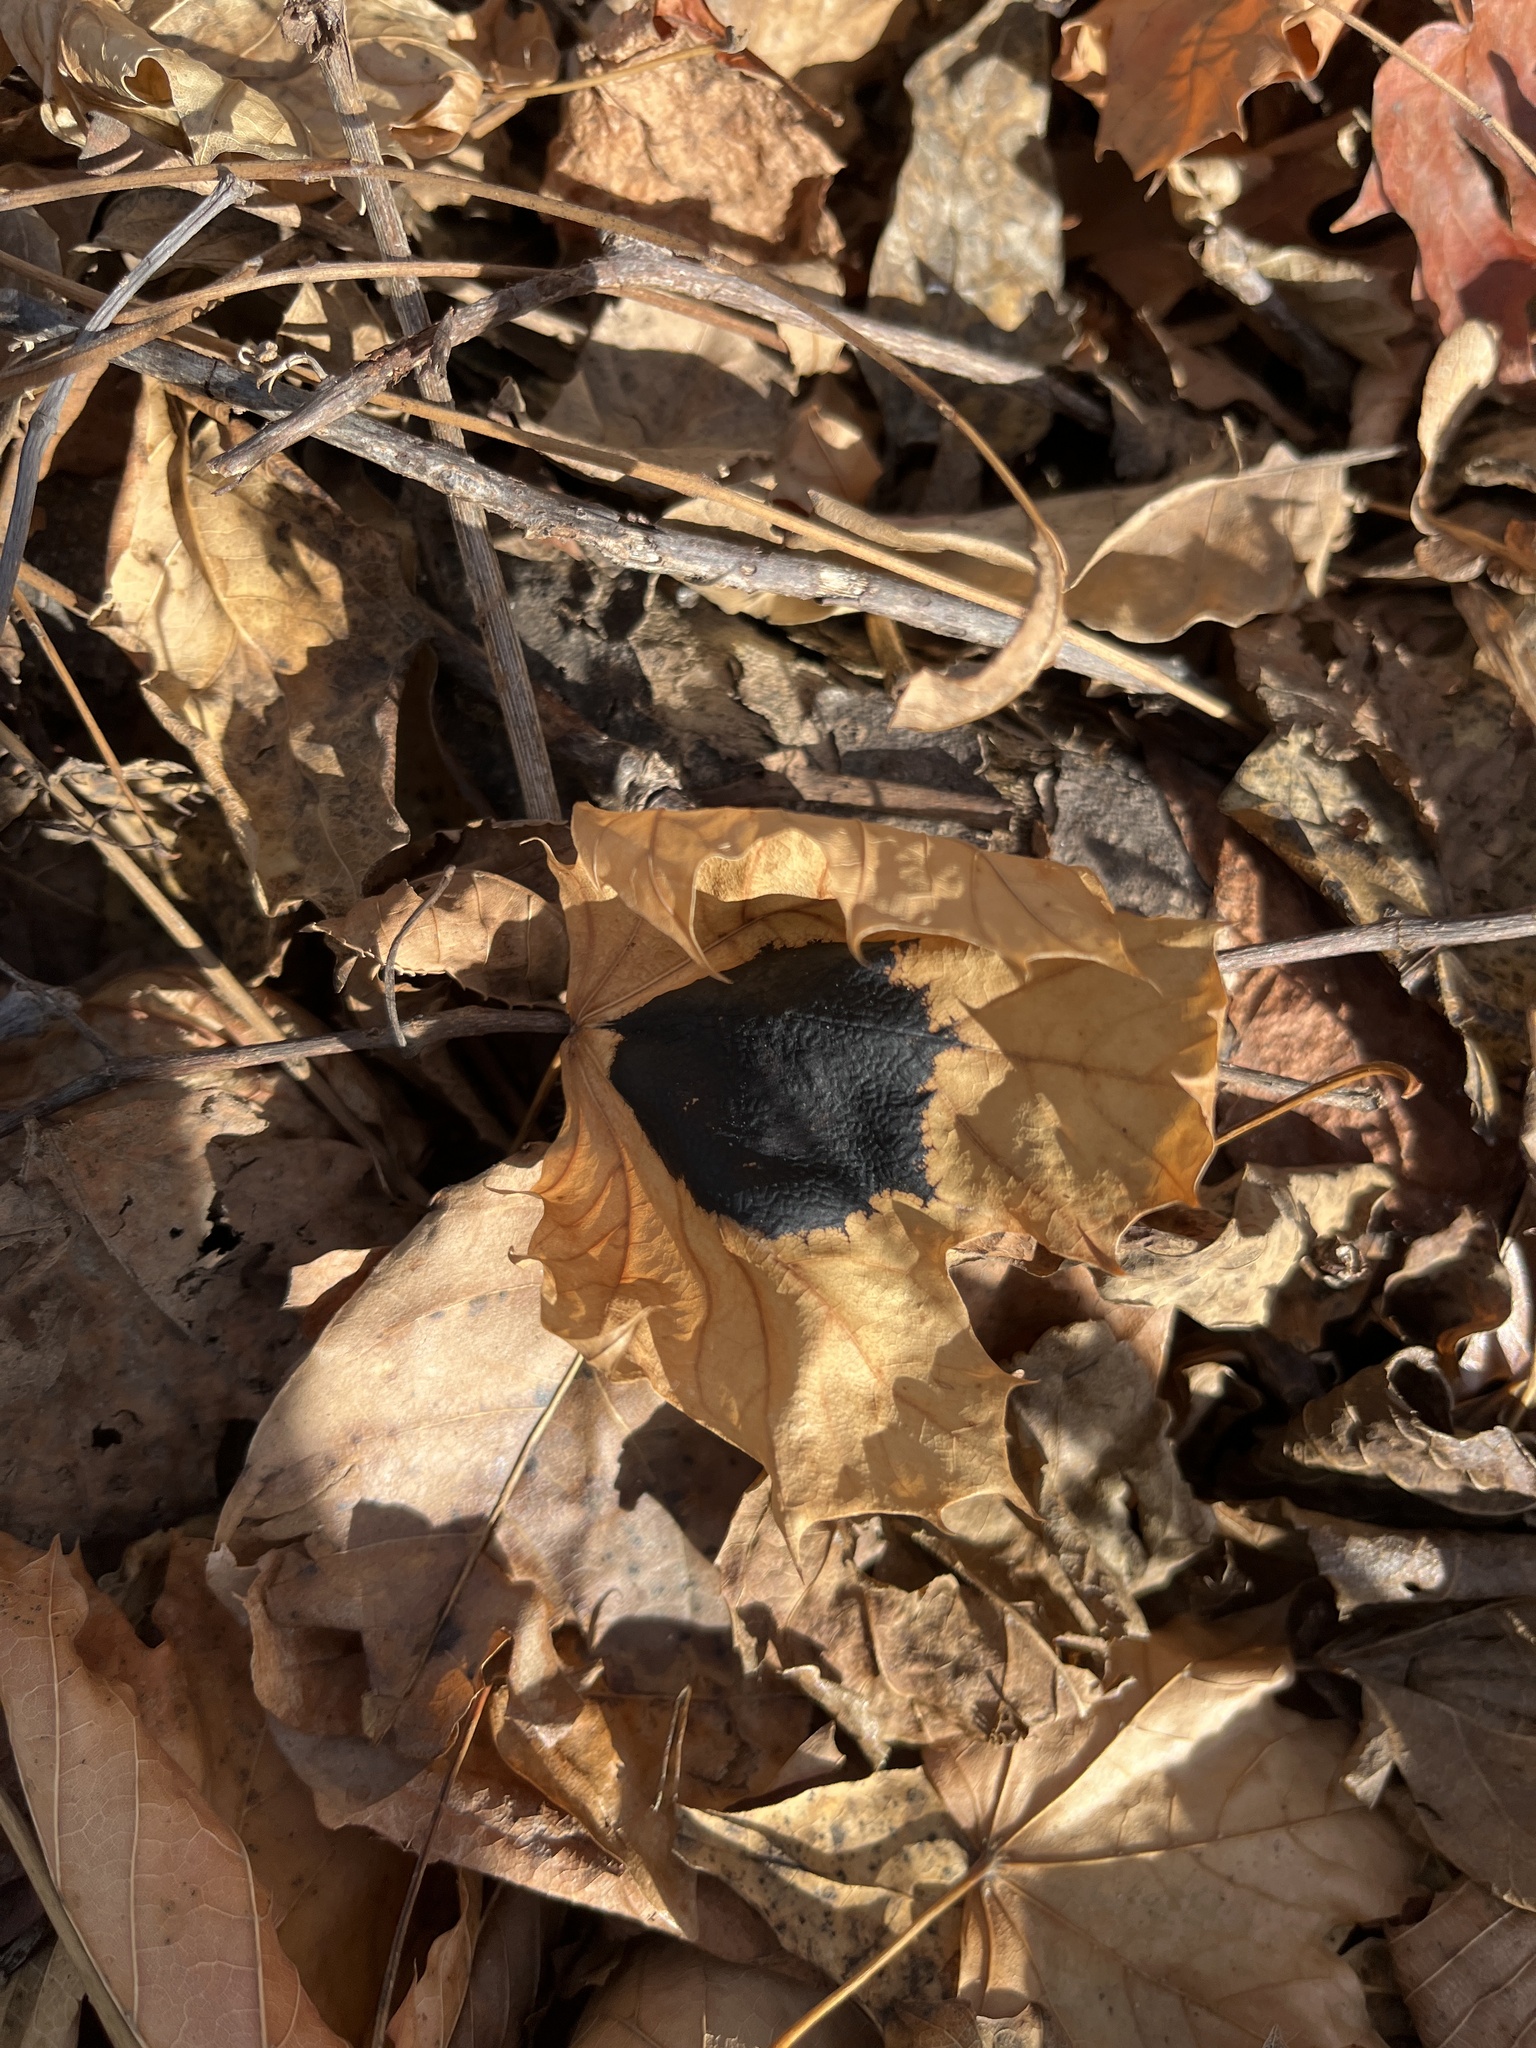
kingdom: Fungi
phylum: Ascomycota
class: Leotiomycetes
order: Rhytismatales
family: Rhytismataceae
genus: Rhytisma
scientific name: Rhytisma acerinum
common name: European tar spot
